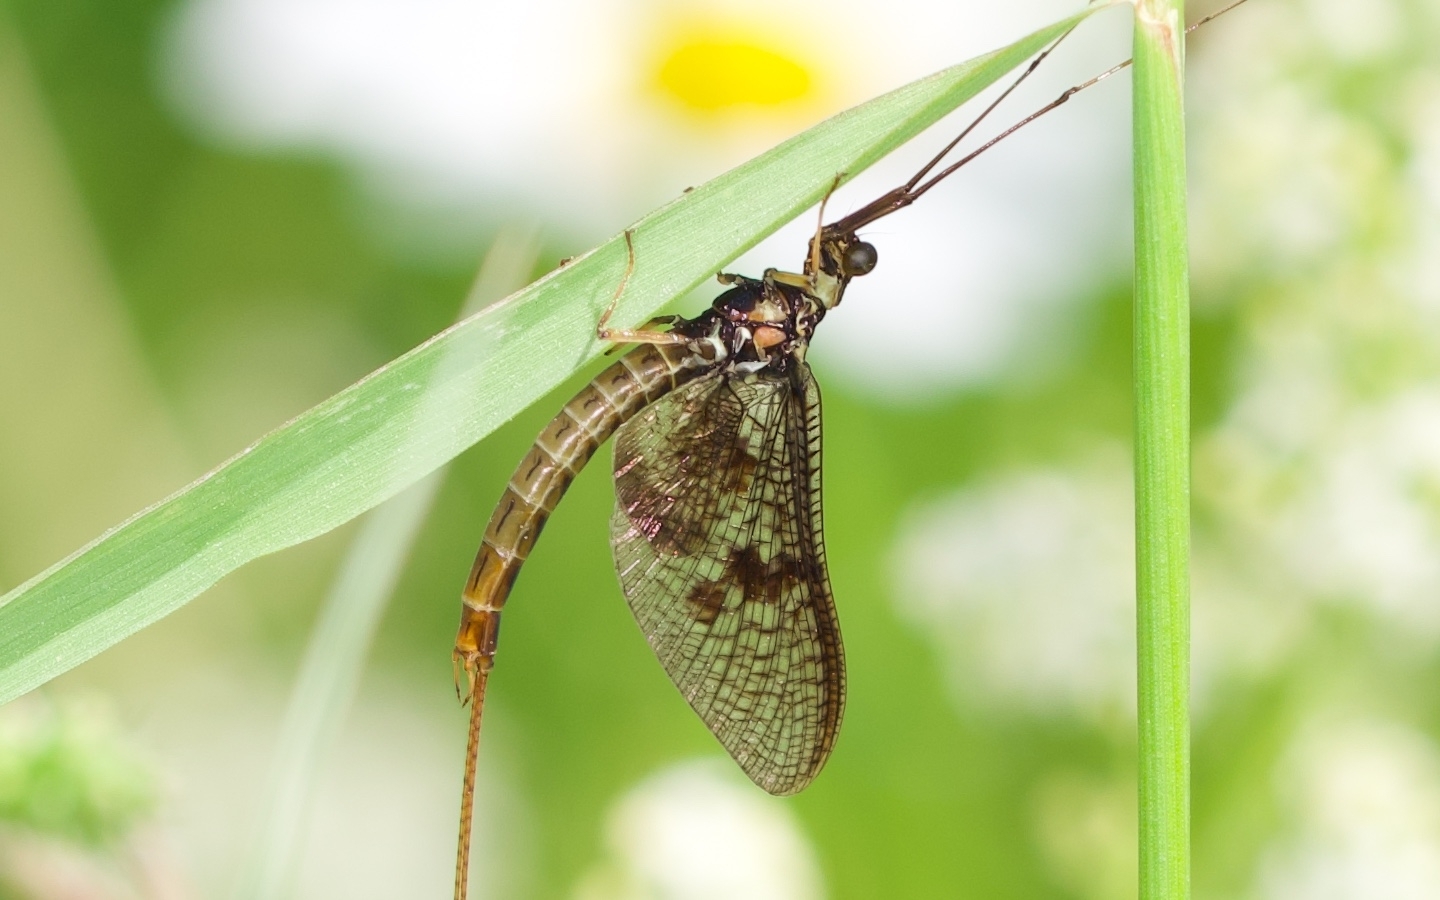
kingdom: Animalia
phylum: Arthropoda
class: Insecta
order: Ephemeroptera
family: Ephemeridae
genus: Ephemera
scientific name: Ephemera vulgata
